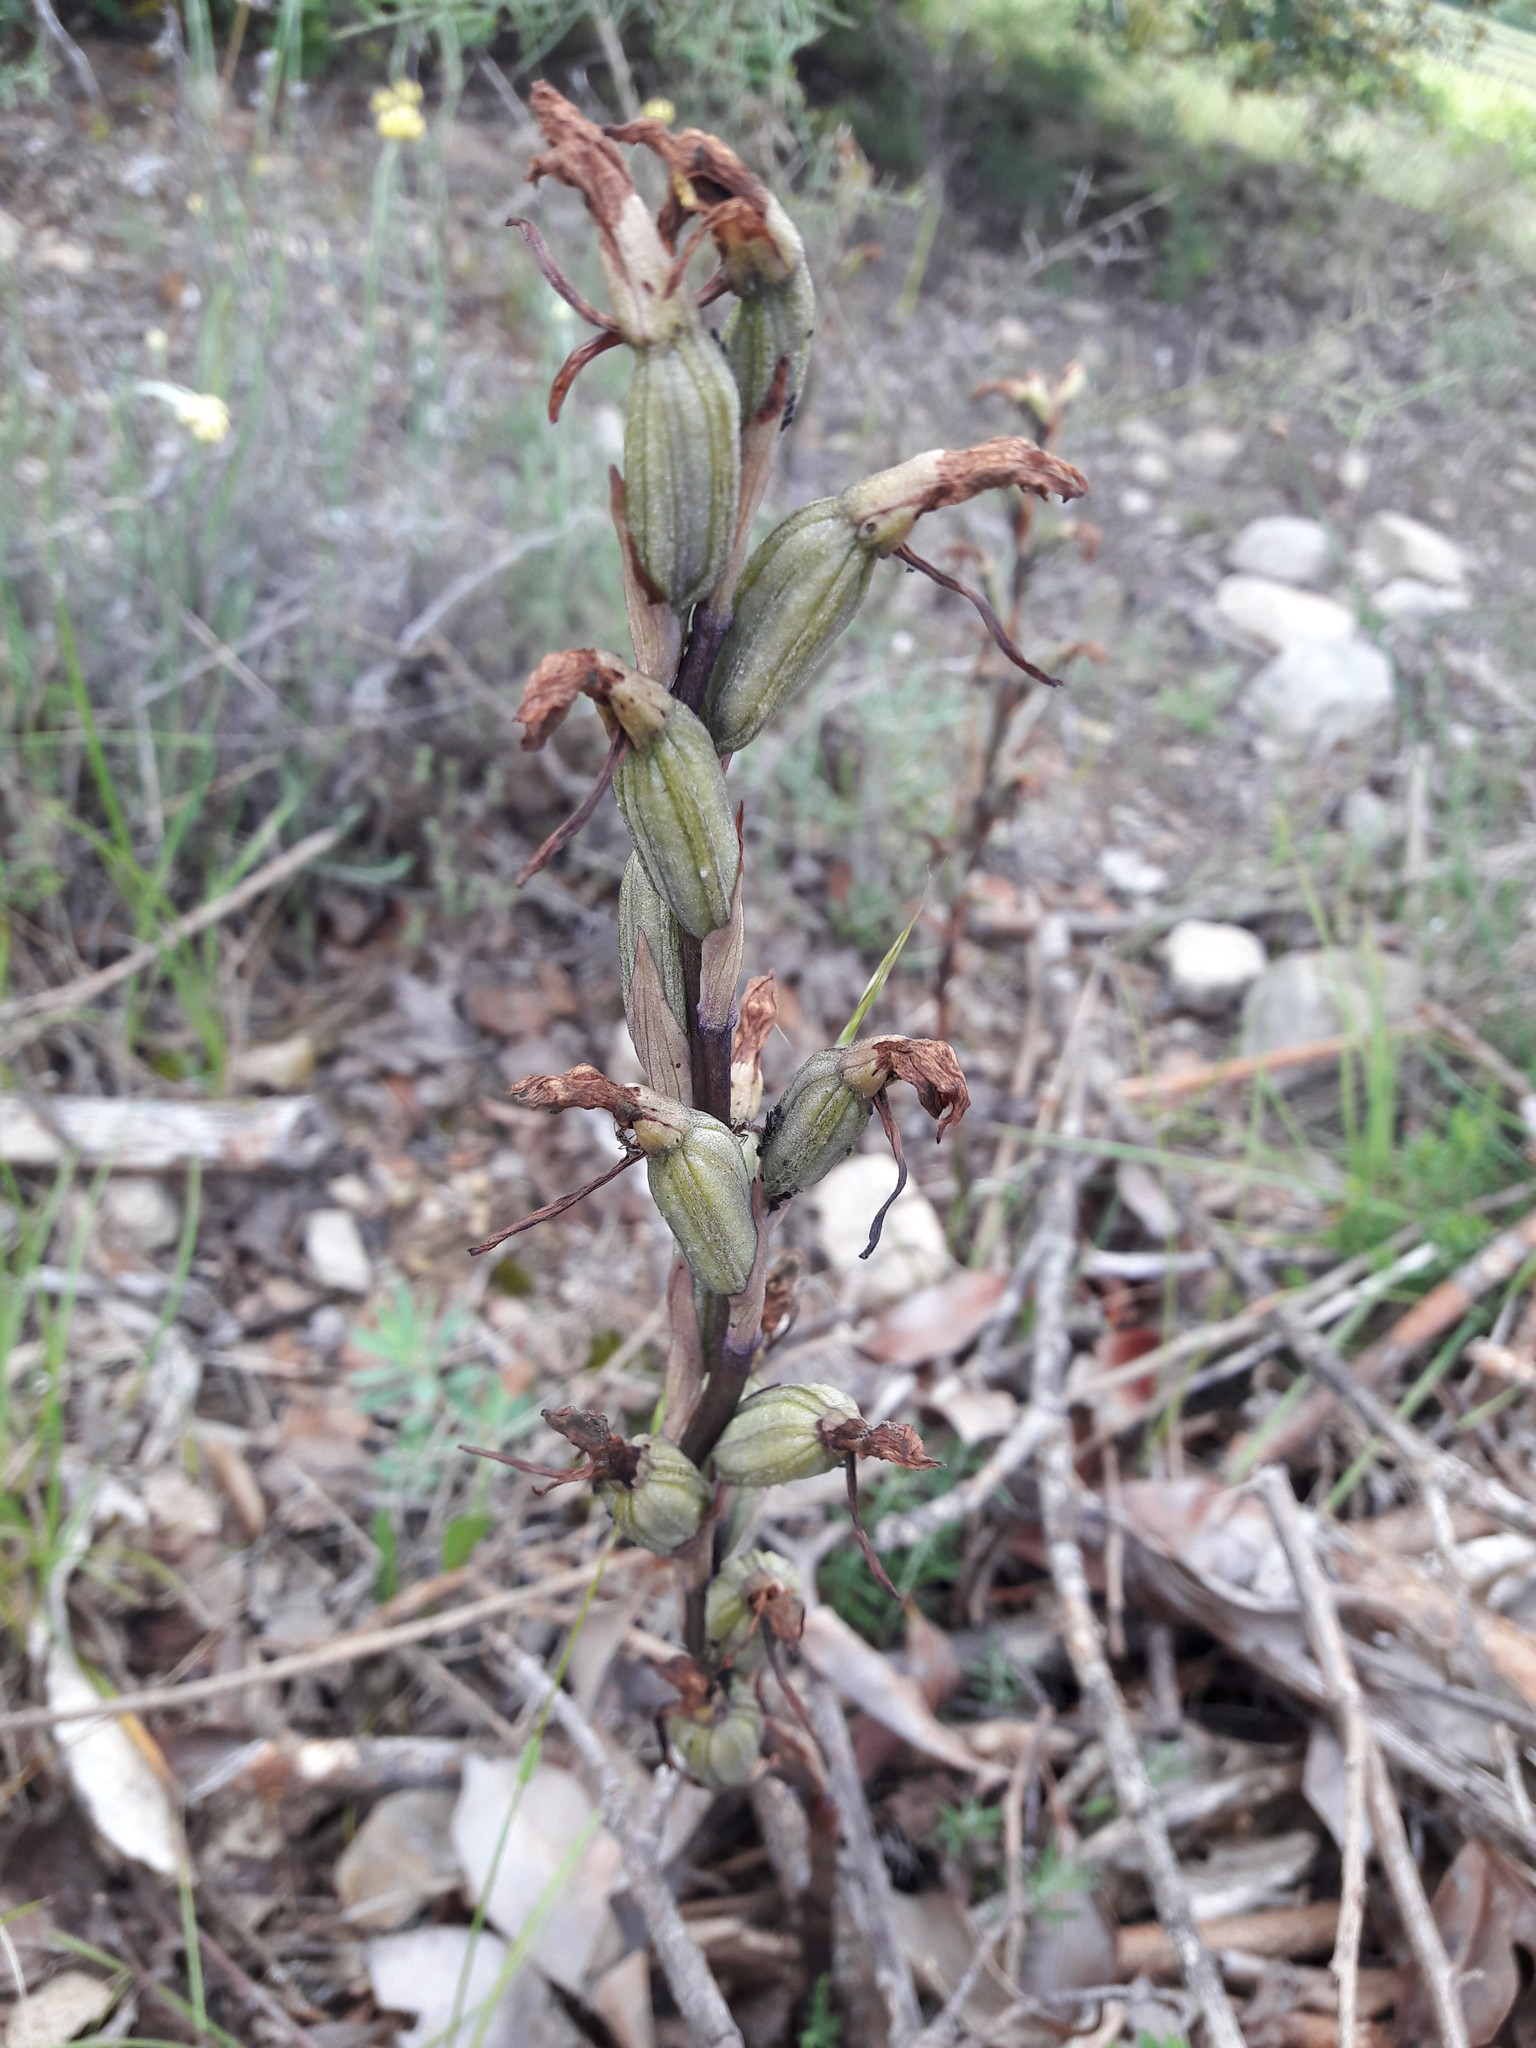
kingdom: Plantae
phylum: Tracheophyta
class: Liliopsida
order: Asparagales
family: Orchidaceae
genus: Limodorum
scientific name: Limodorum abortivum
